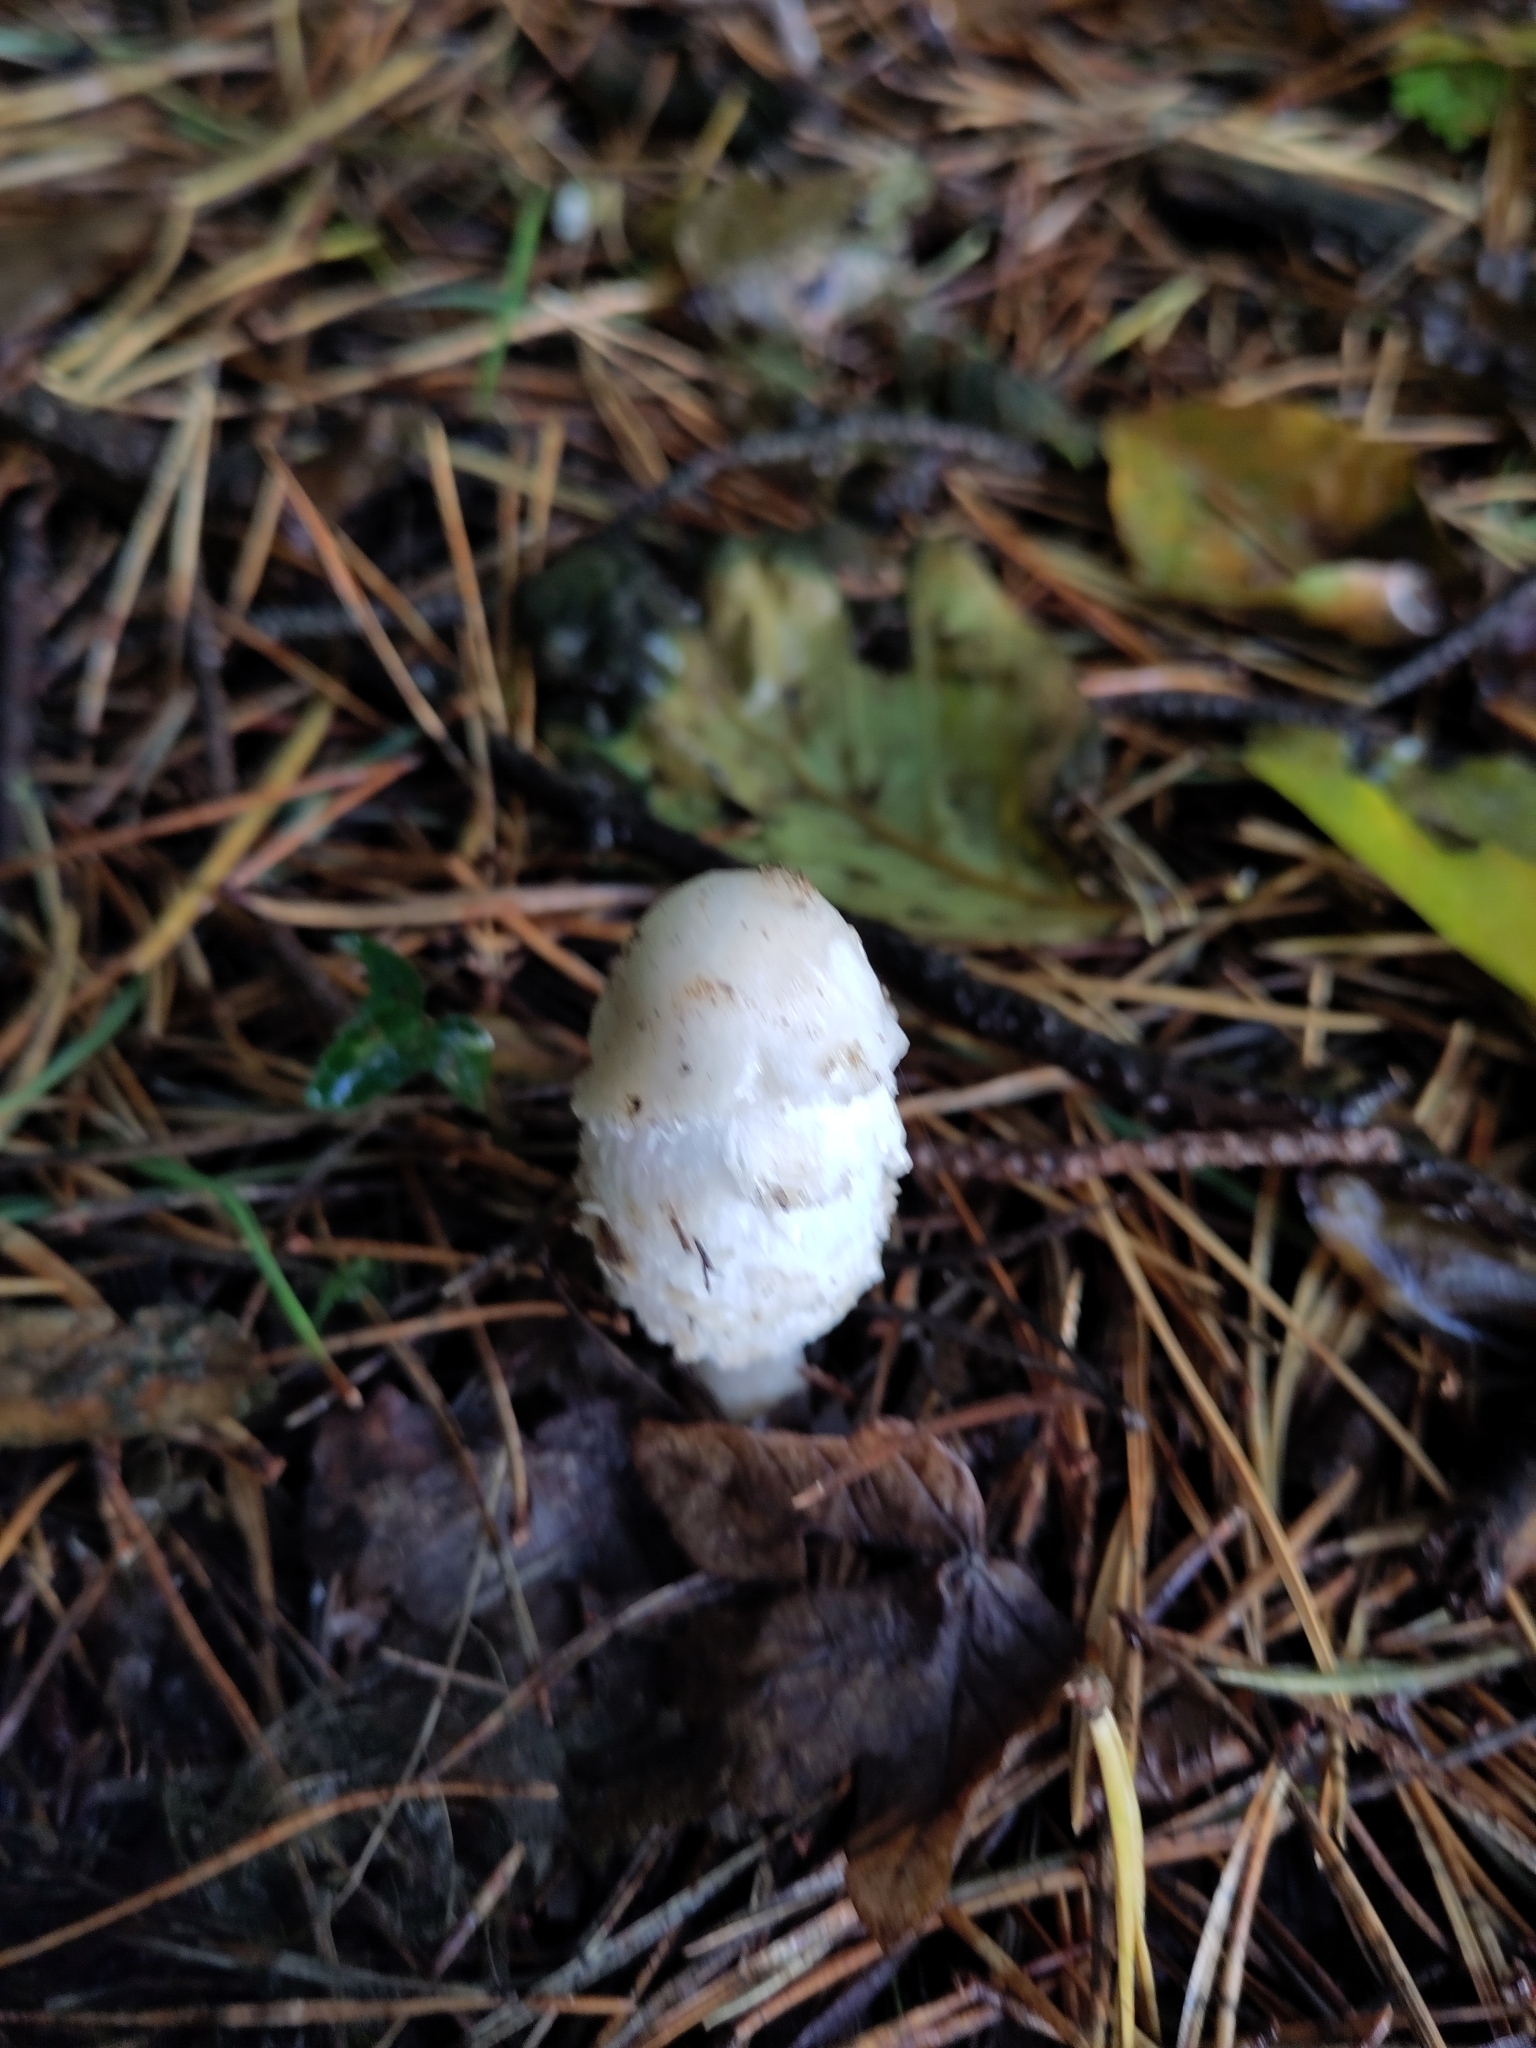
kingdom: Fungi
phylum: Basidiomycota
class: Agaricomycetes
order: Agaricales
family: Agaricaceae
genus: Coprinus
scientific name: Coprinus comatus
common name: Lawyer's wig
